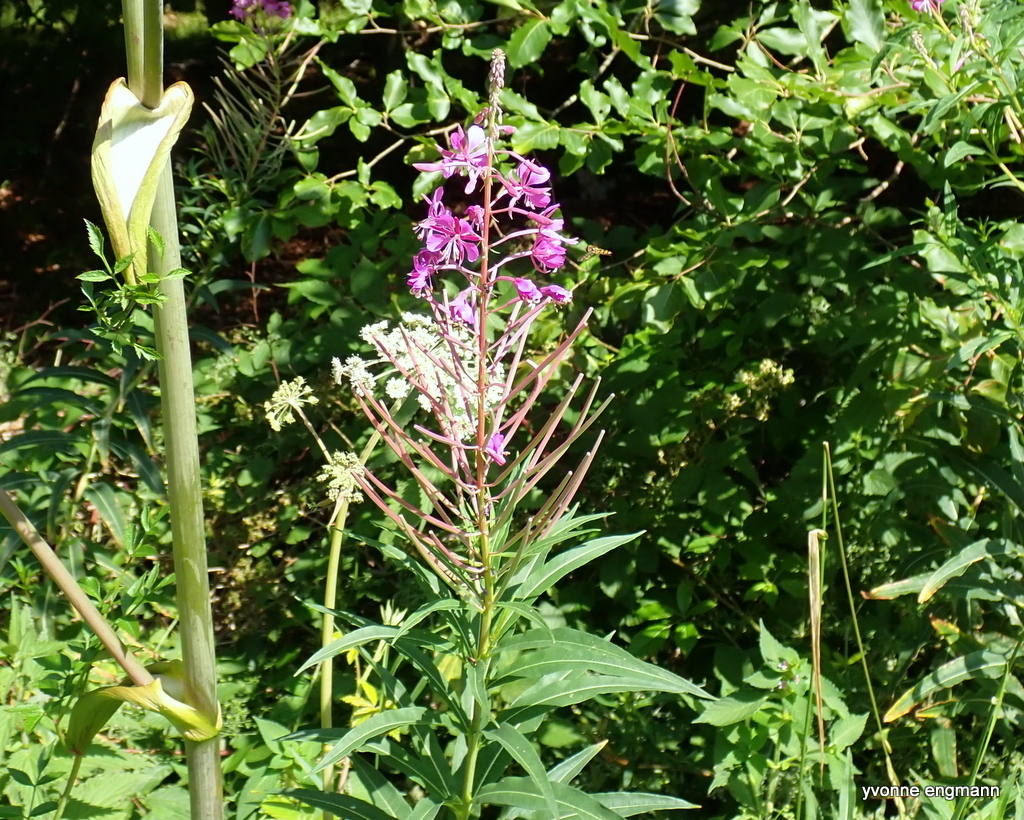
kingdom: Plantae
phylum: Tracheophyta
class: Magnoliopsida
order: Myrtales
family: Onagraceae
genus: Chamaenerion
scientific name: Chamaenerion angustifolium
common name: Fireweed
